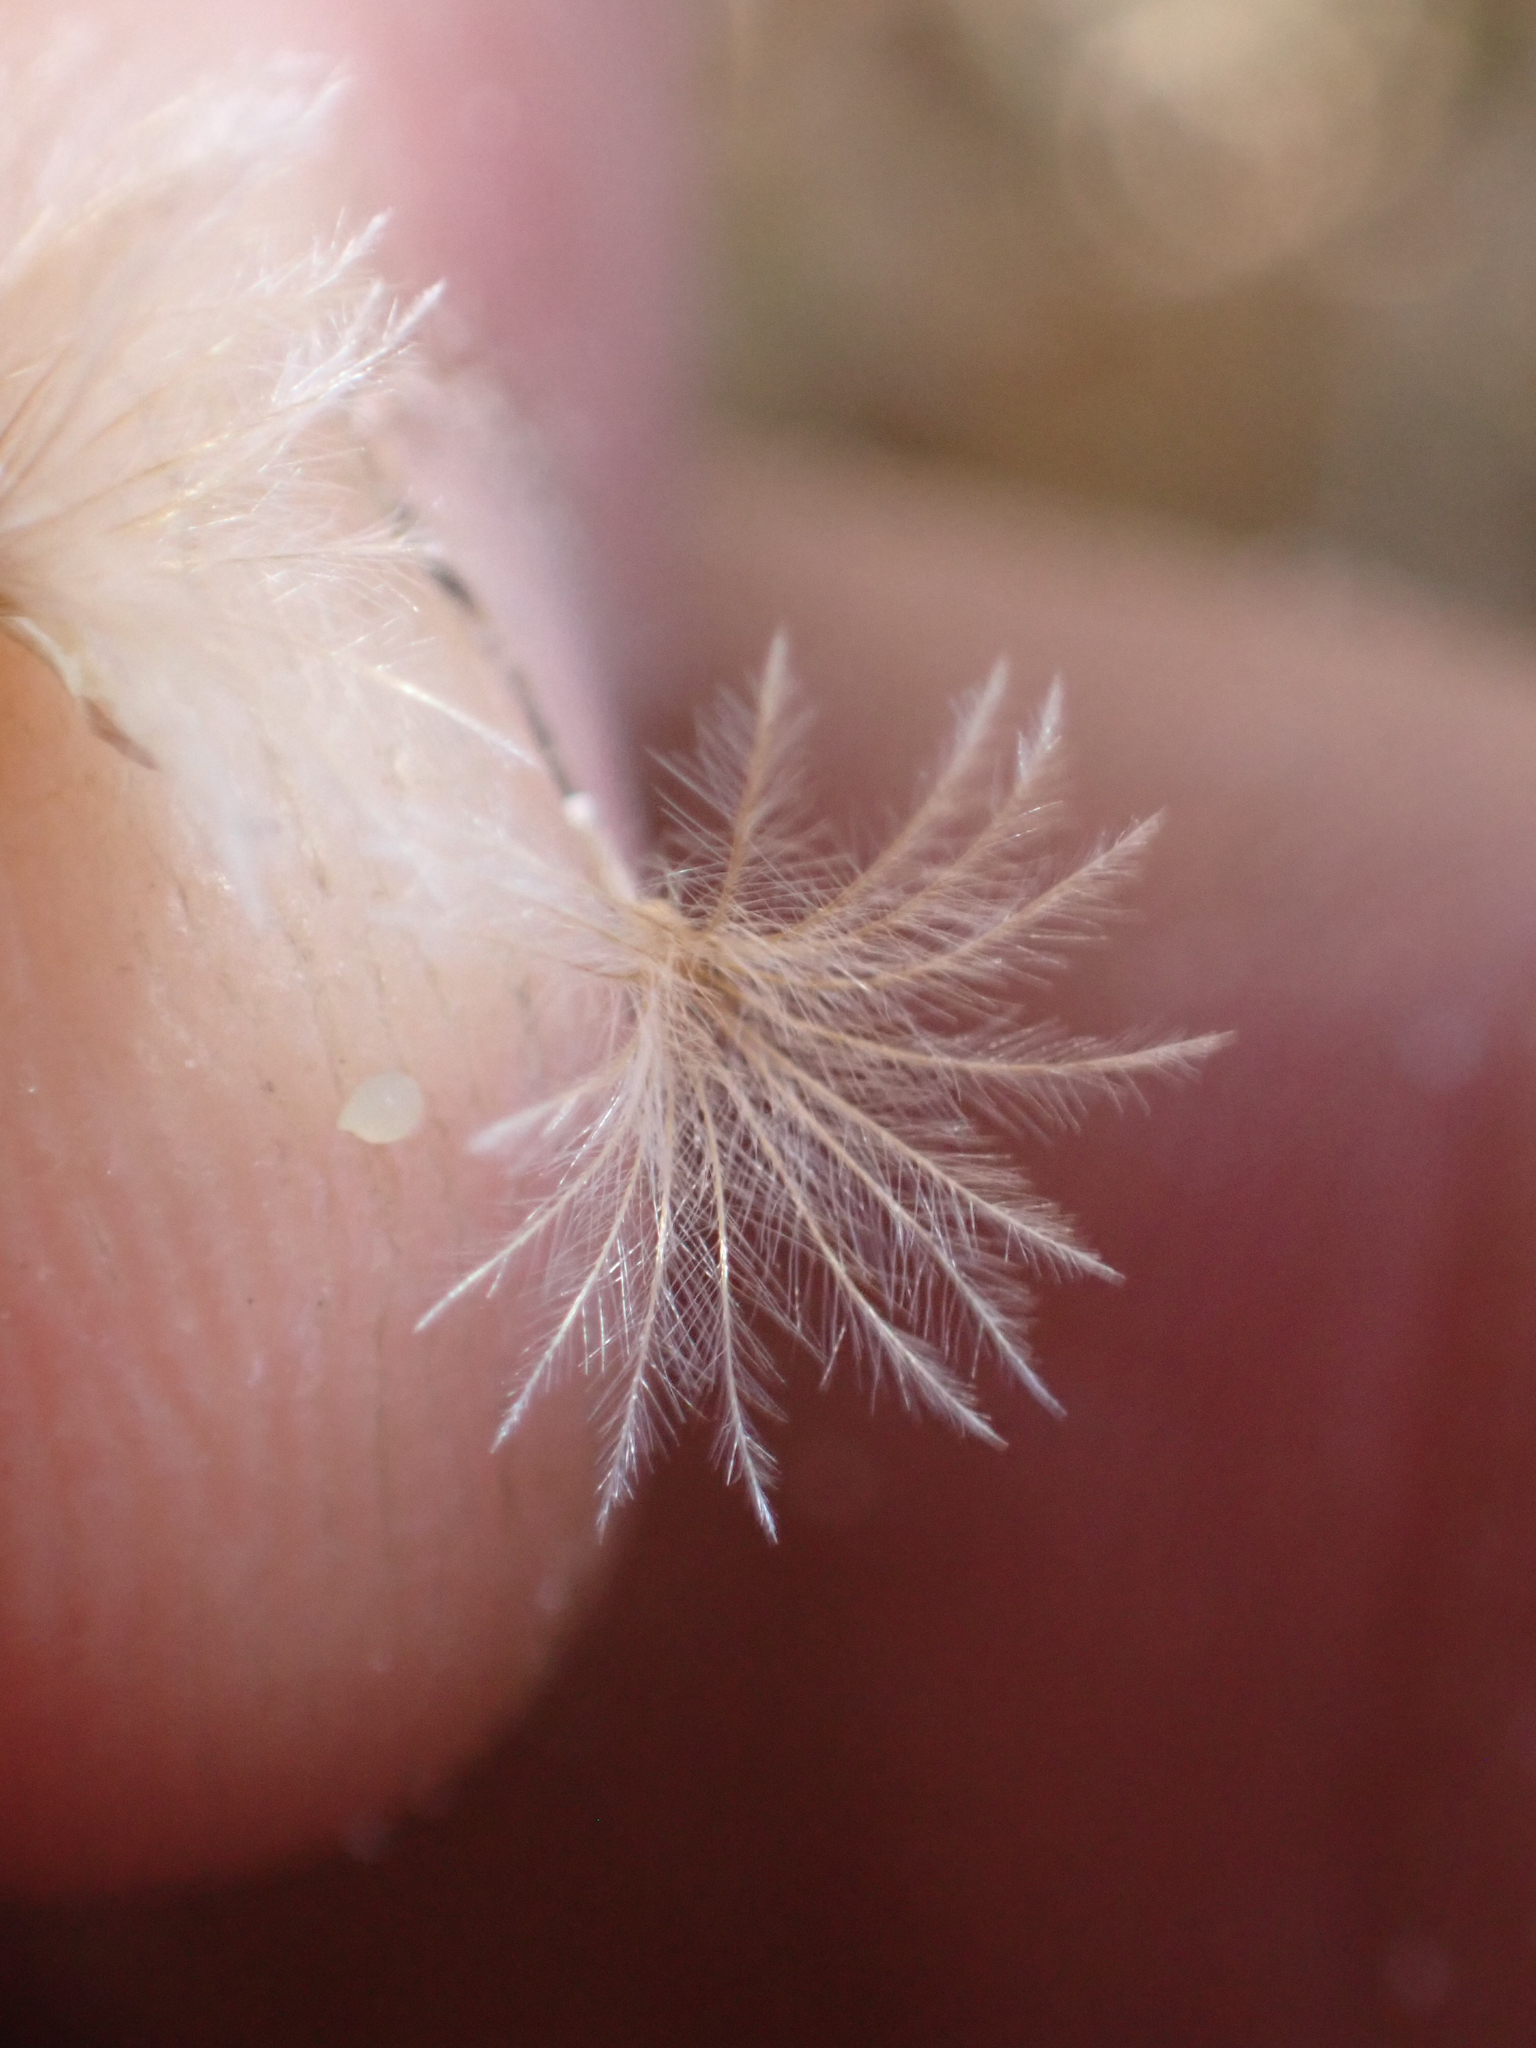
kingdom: Plantae
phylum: Tracheophyta
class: Magnoliopsida
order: Asterales
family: Asteraceae
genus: Stephanomeria
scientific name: Stephanomeria pauciflora
